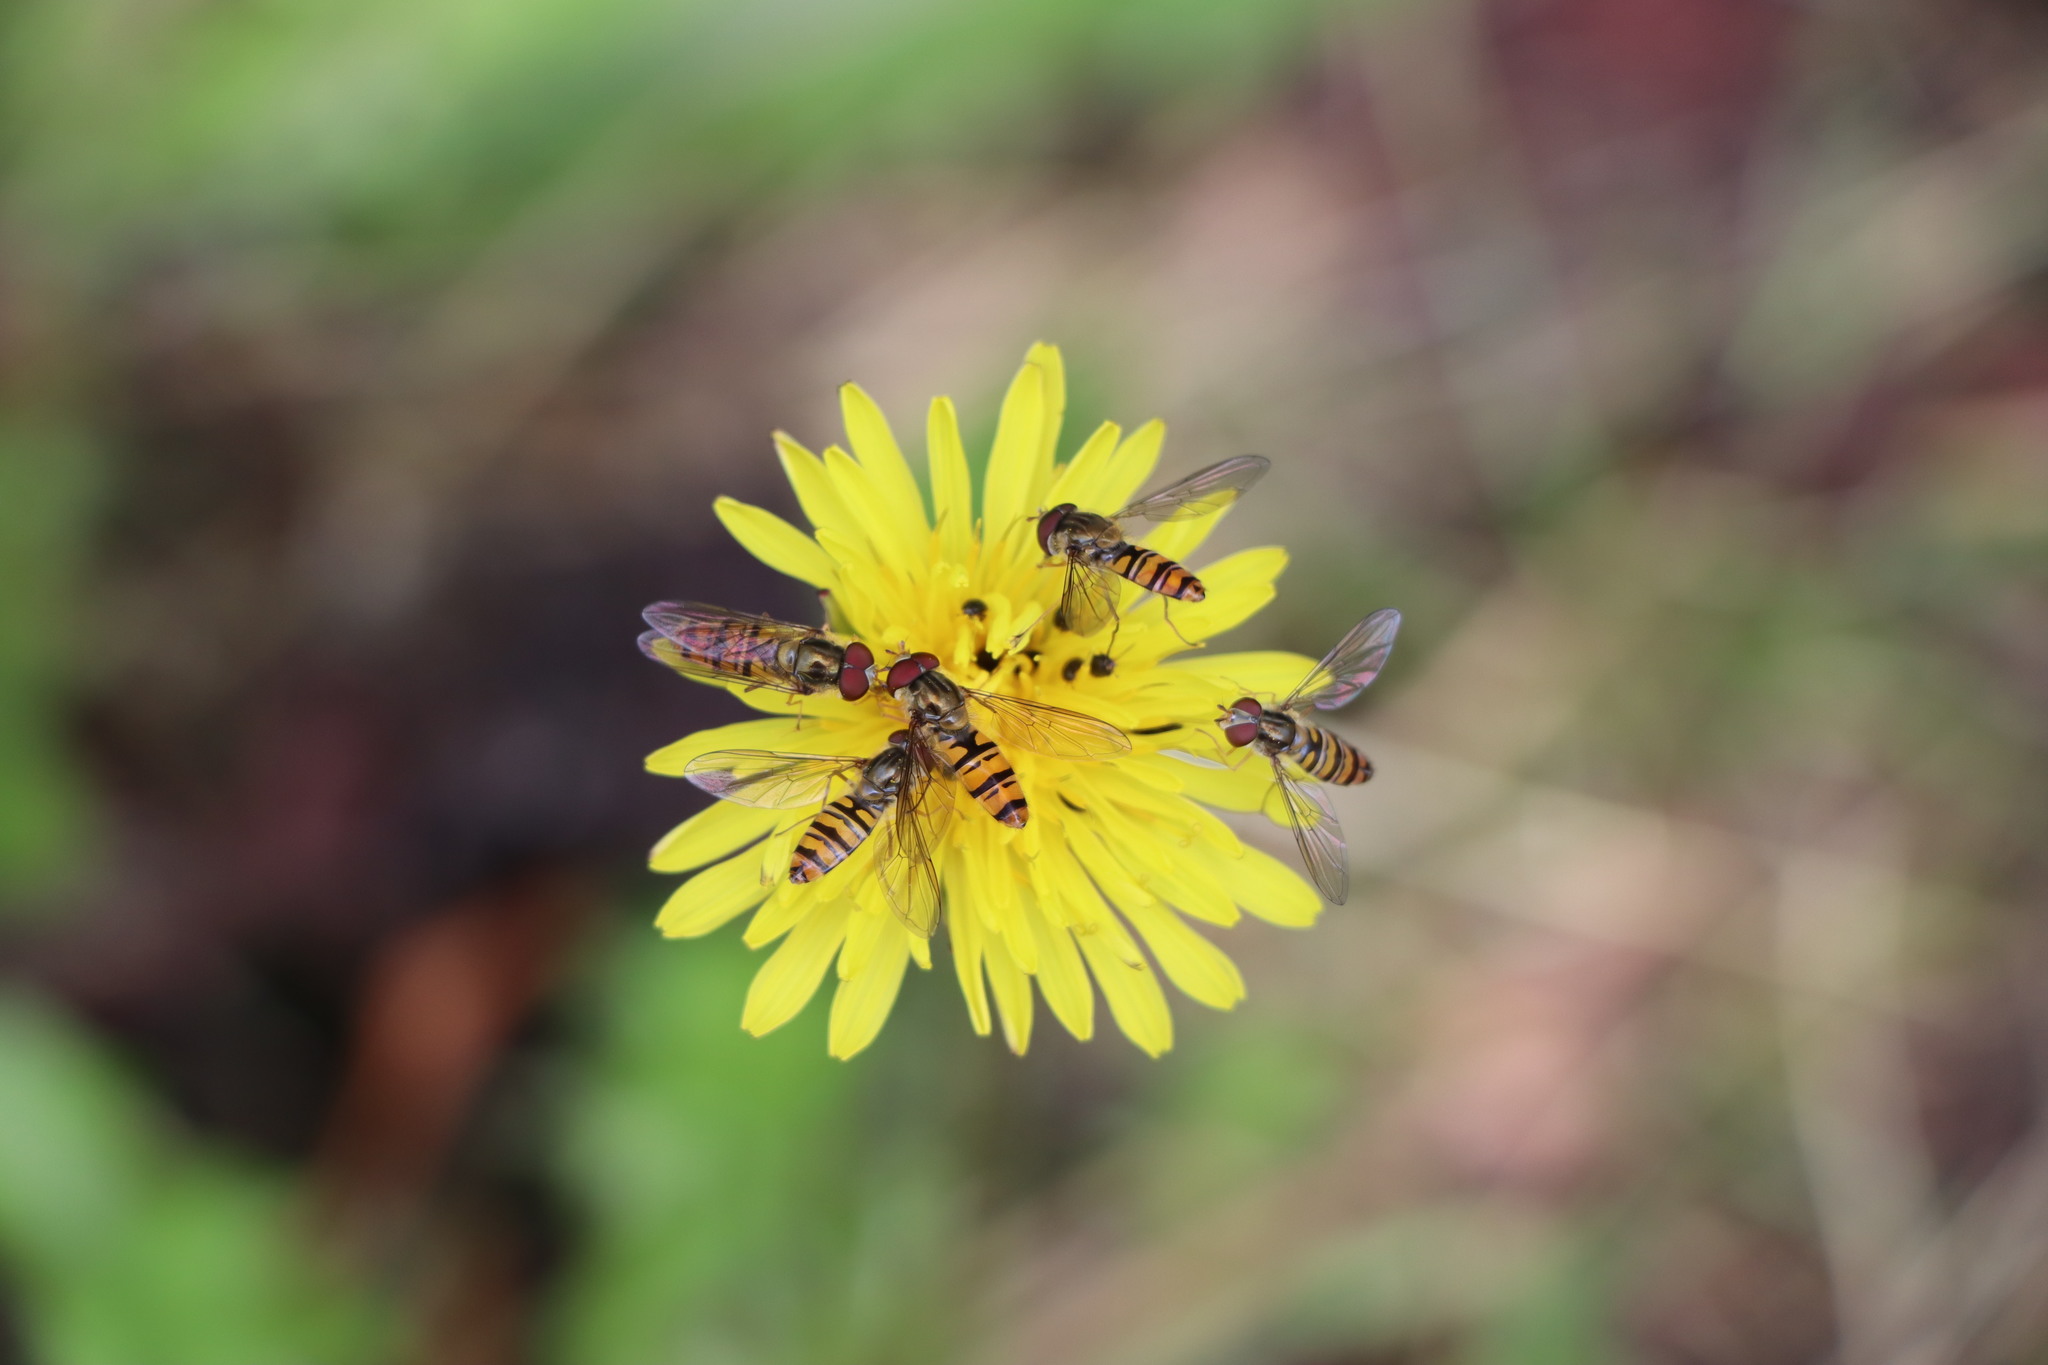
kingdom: Animalia
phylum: Arthropoda
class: Insecta
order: Diptera
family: Syrphidae
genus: Episyrphus
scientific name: Episyrphus balteatus
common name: Marmalade hoverfly
